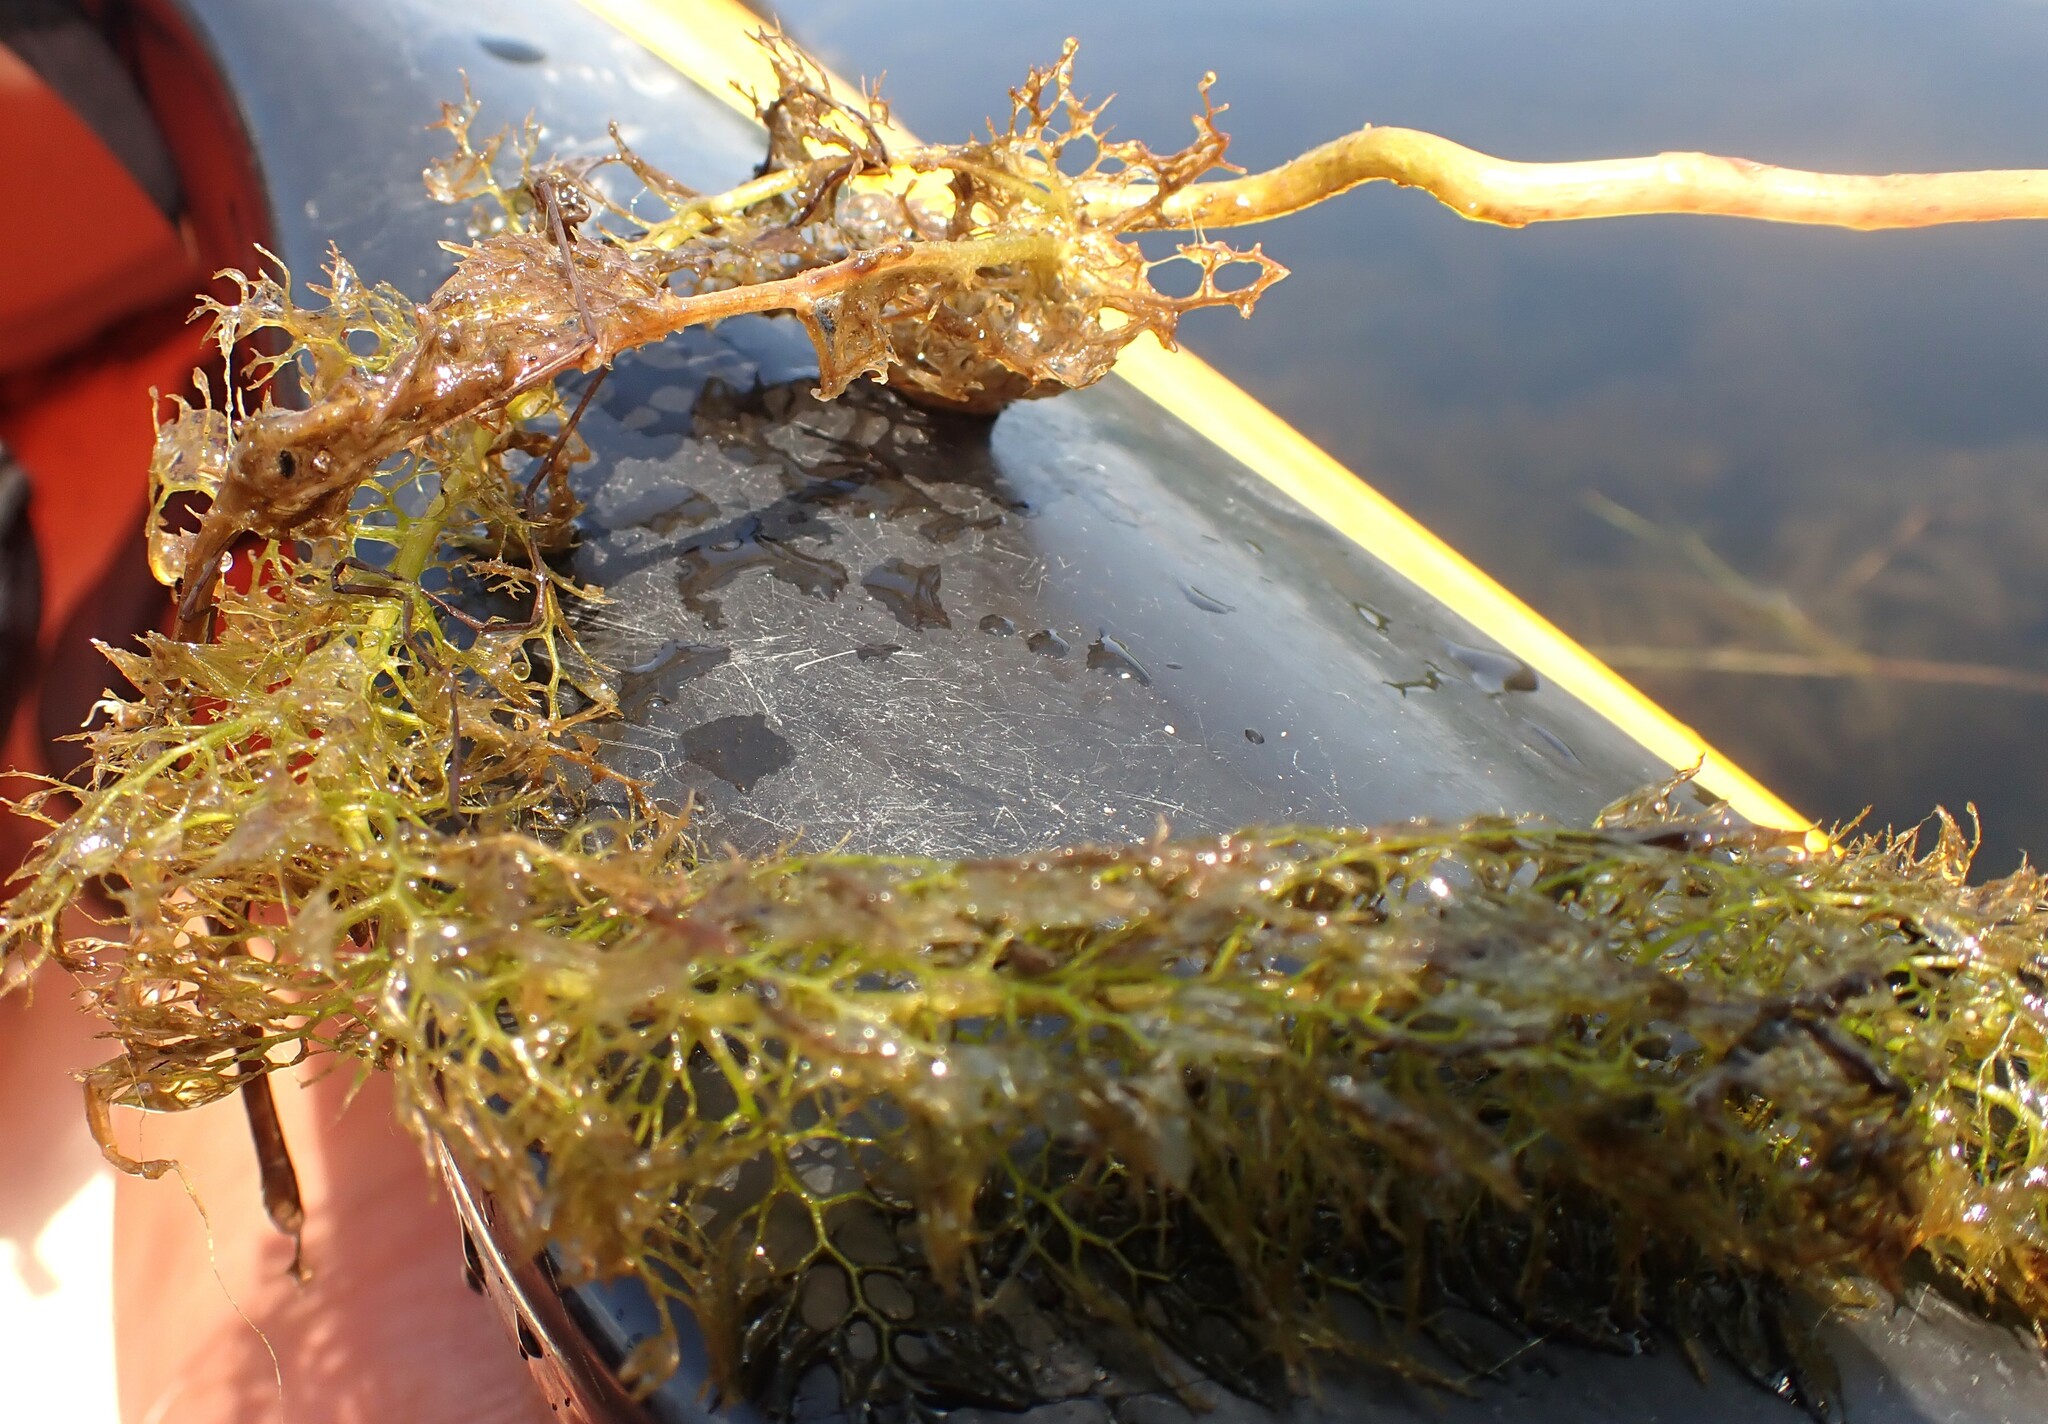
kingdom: Plantae
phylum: Tracheophyta
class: Magnoliopsida
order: Lamiales
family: Lentibulariaceae
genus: Utricularia
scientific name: Utricularia macrorhiza
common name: Common bladderwort
